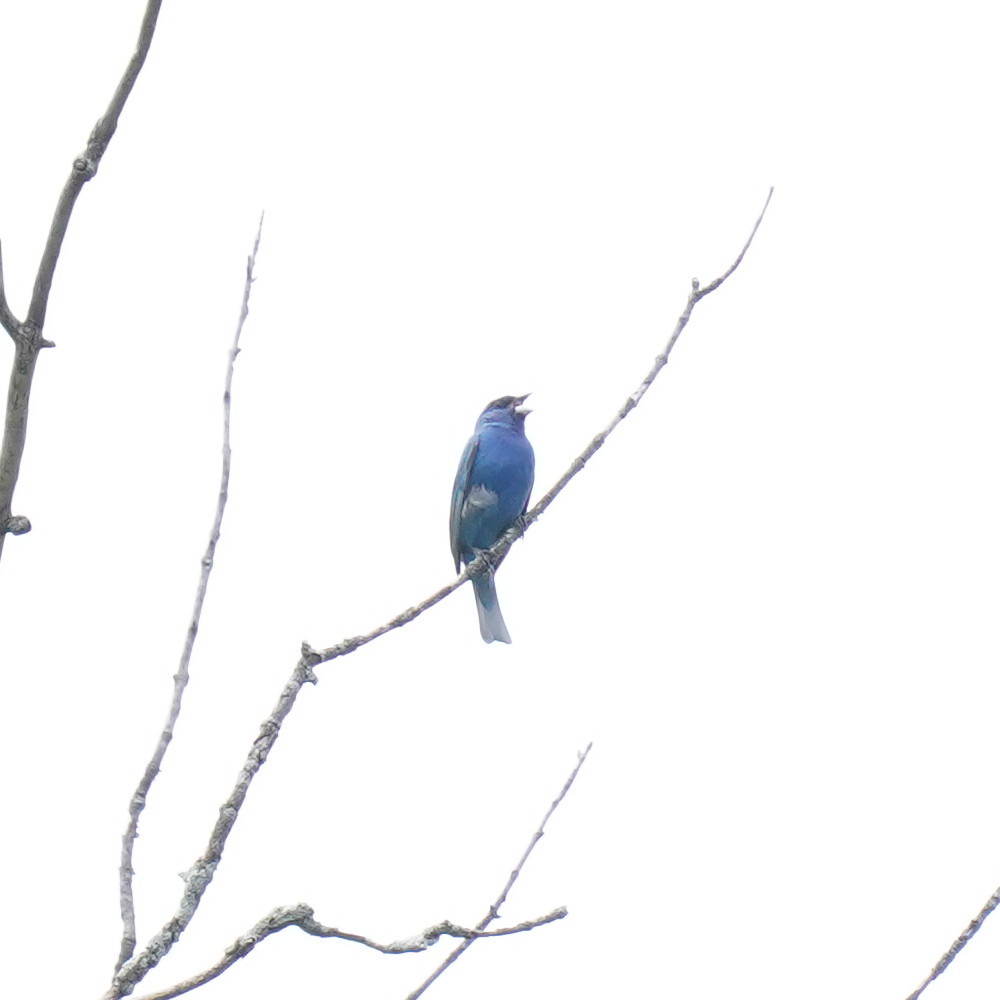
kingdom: Animalia
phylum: Chordata
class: Aves
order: Passeriformes
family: Cardinalidae
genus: Passerina
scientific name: Passerina cyanea
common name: Indigo bunting
